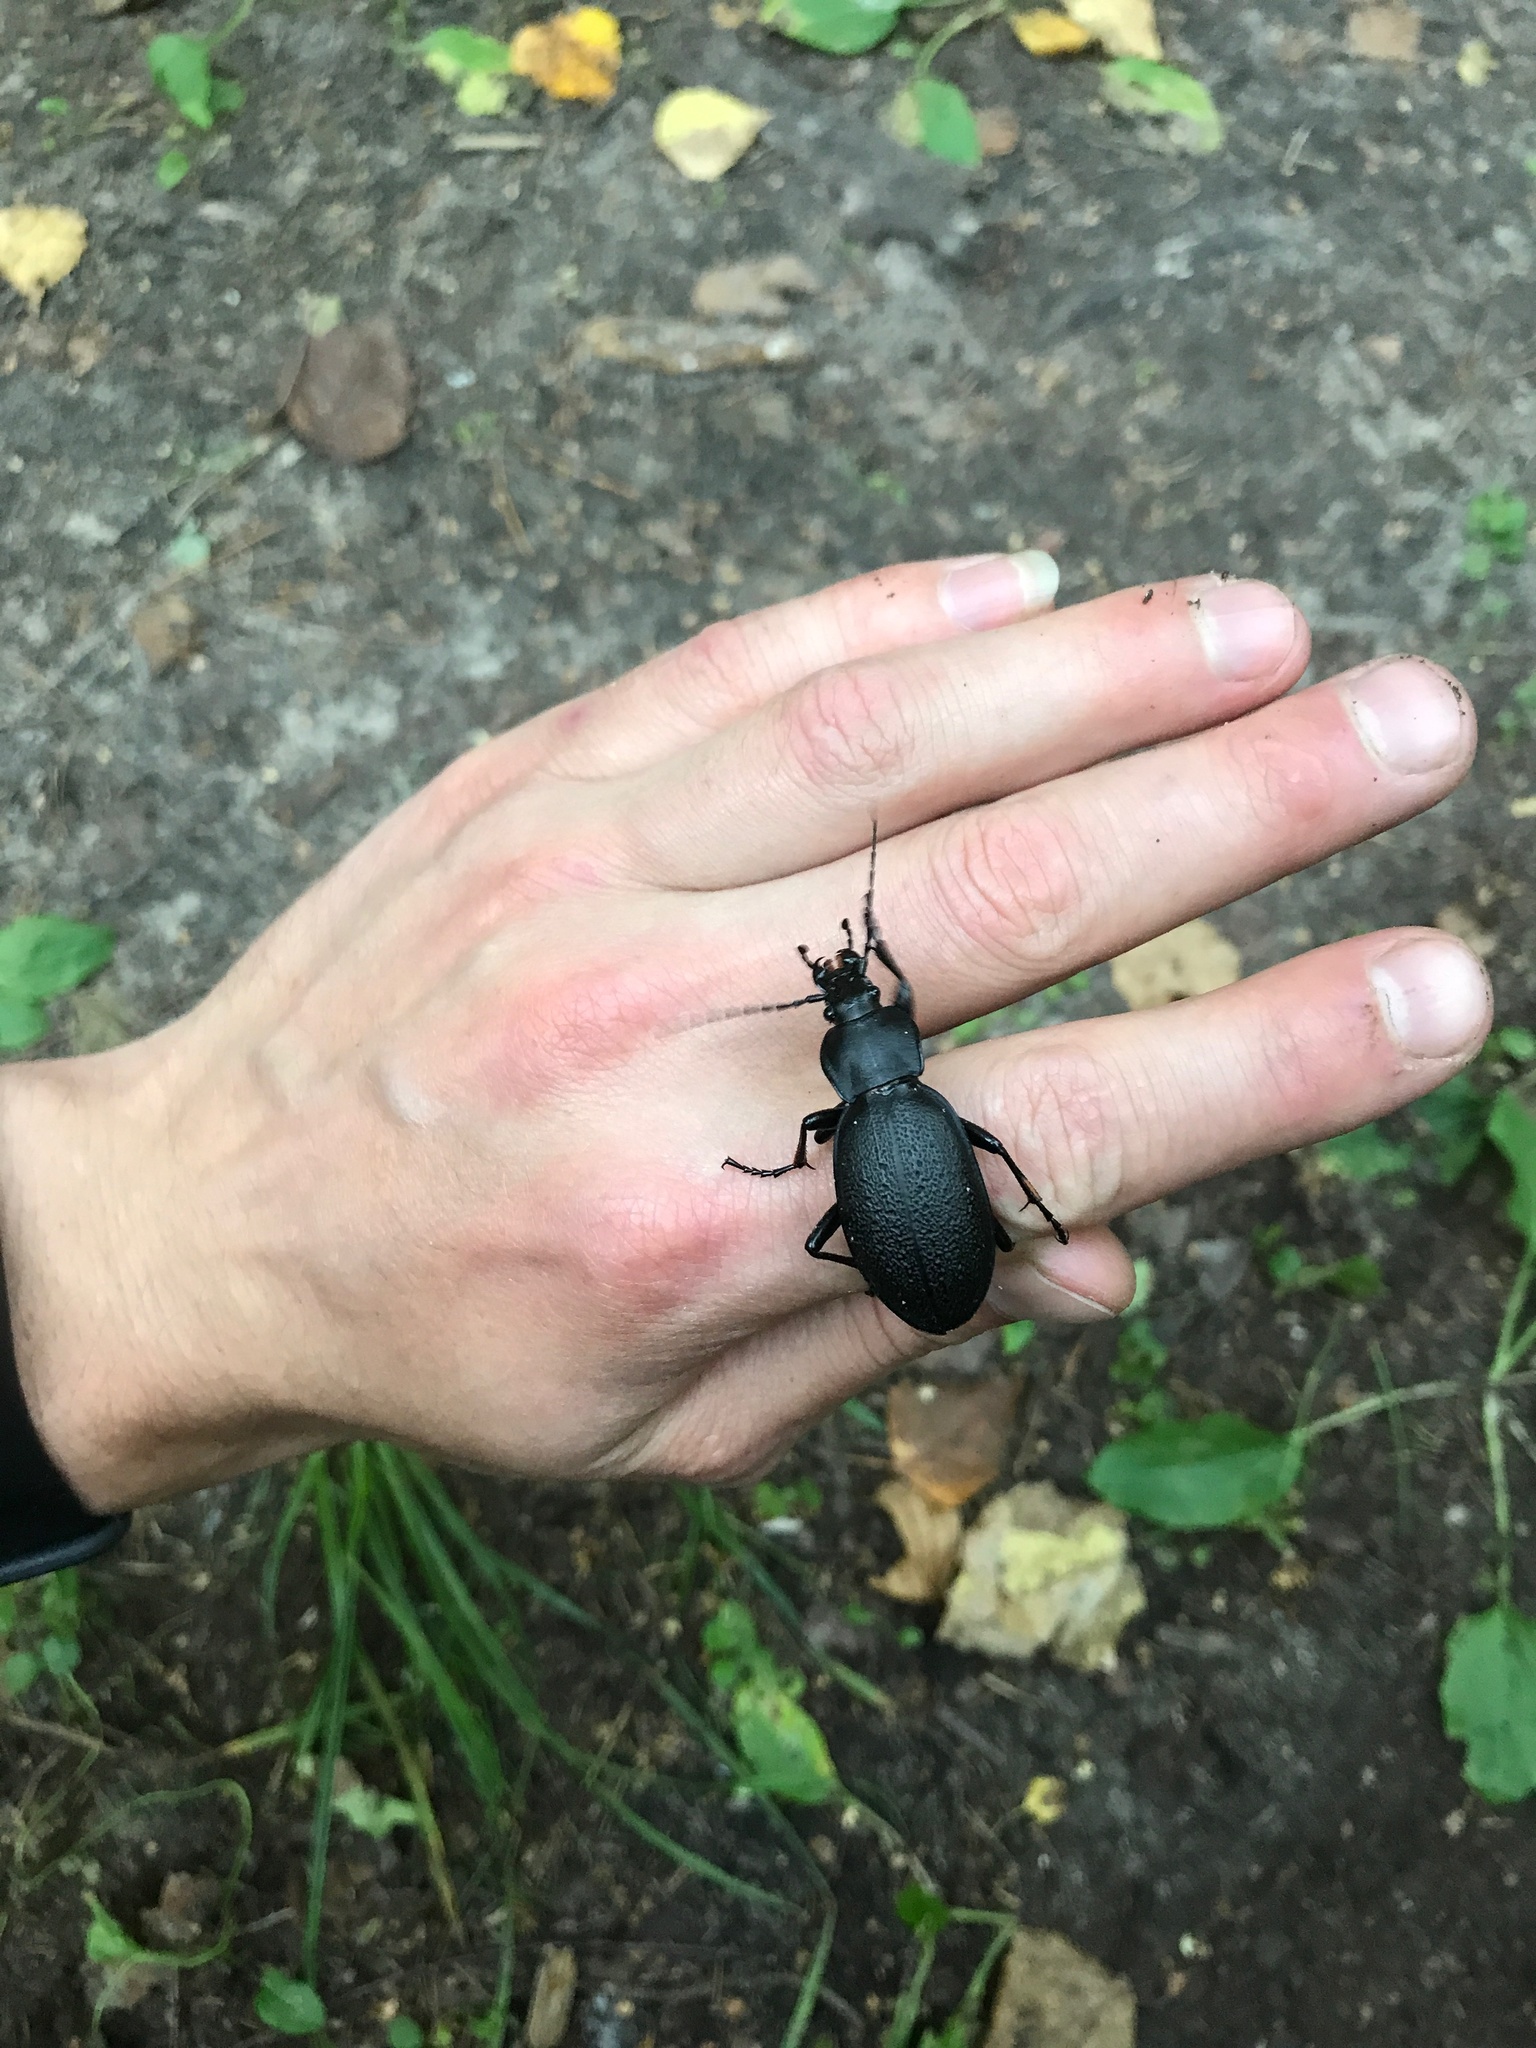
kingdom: Animalia
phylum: Arthropoda
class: Insecta
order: Coleoptera
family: Carabidae
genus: Carabus
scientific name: Carabus coriaceus
